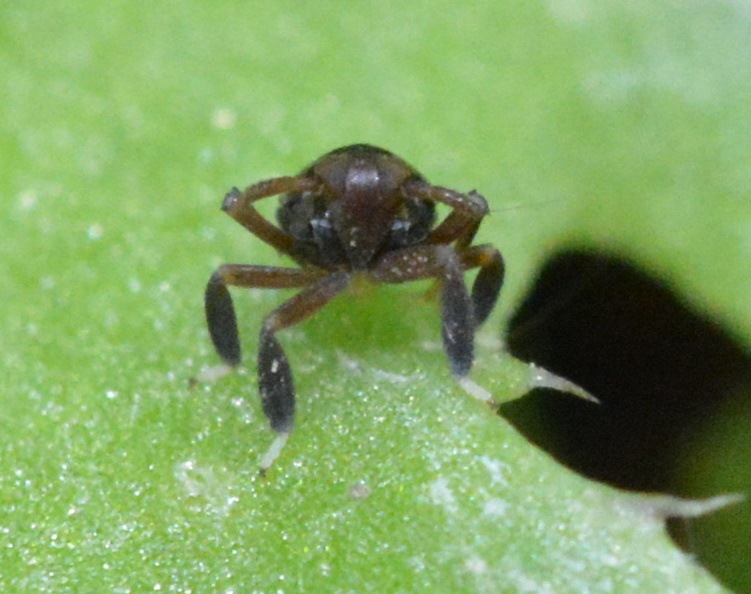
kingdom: Animalia
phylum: Arthropoda
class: Insecta
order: Hemiptera
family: Delphacidae
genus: Pissonotus
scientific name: Pissonotus nitens
